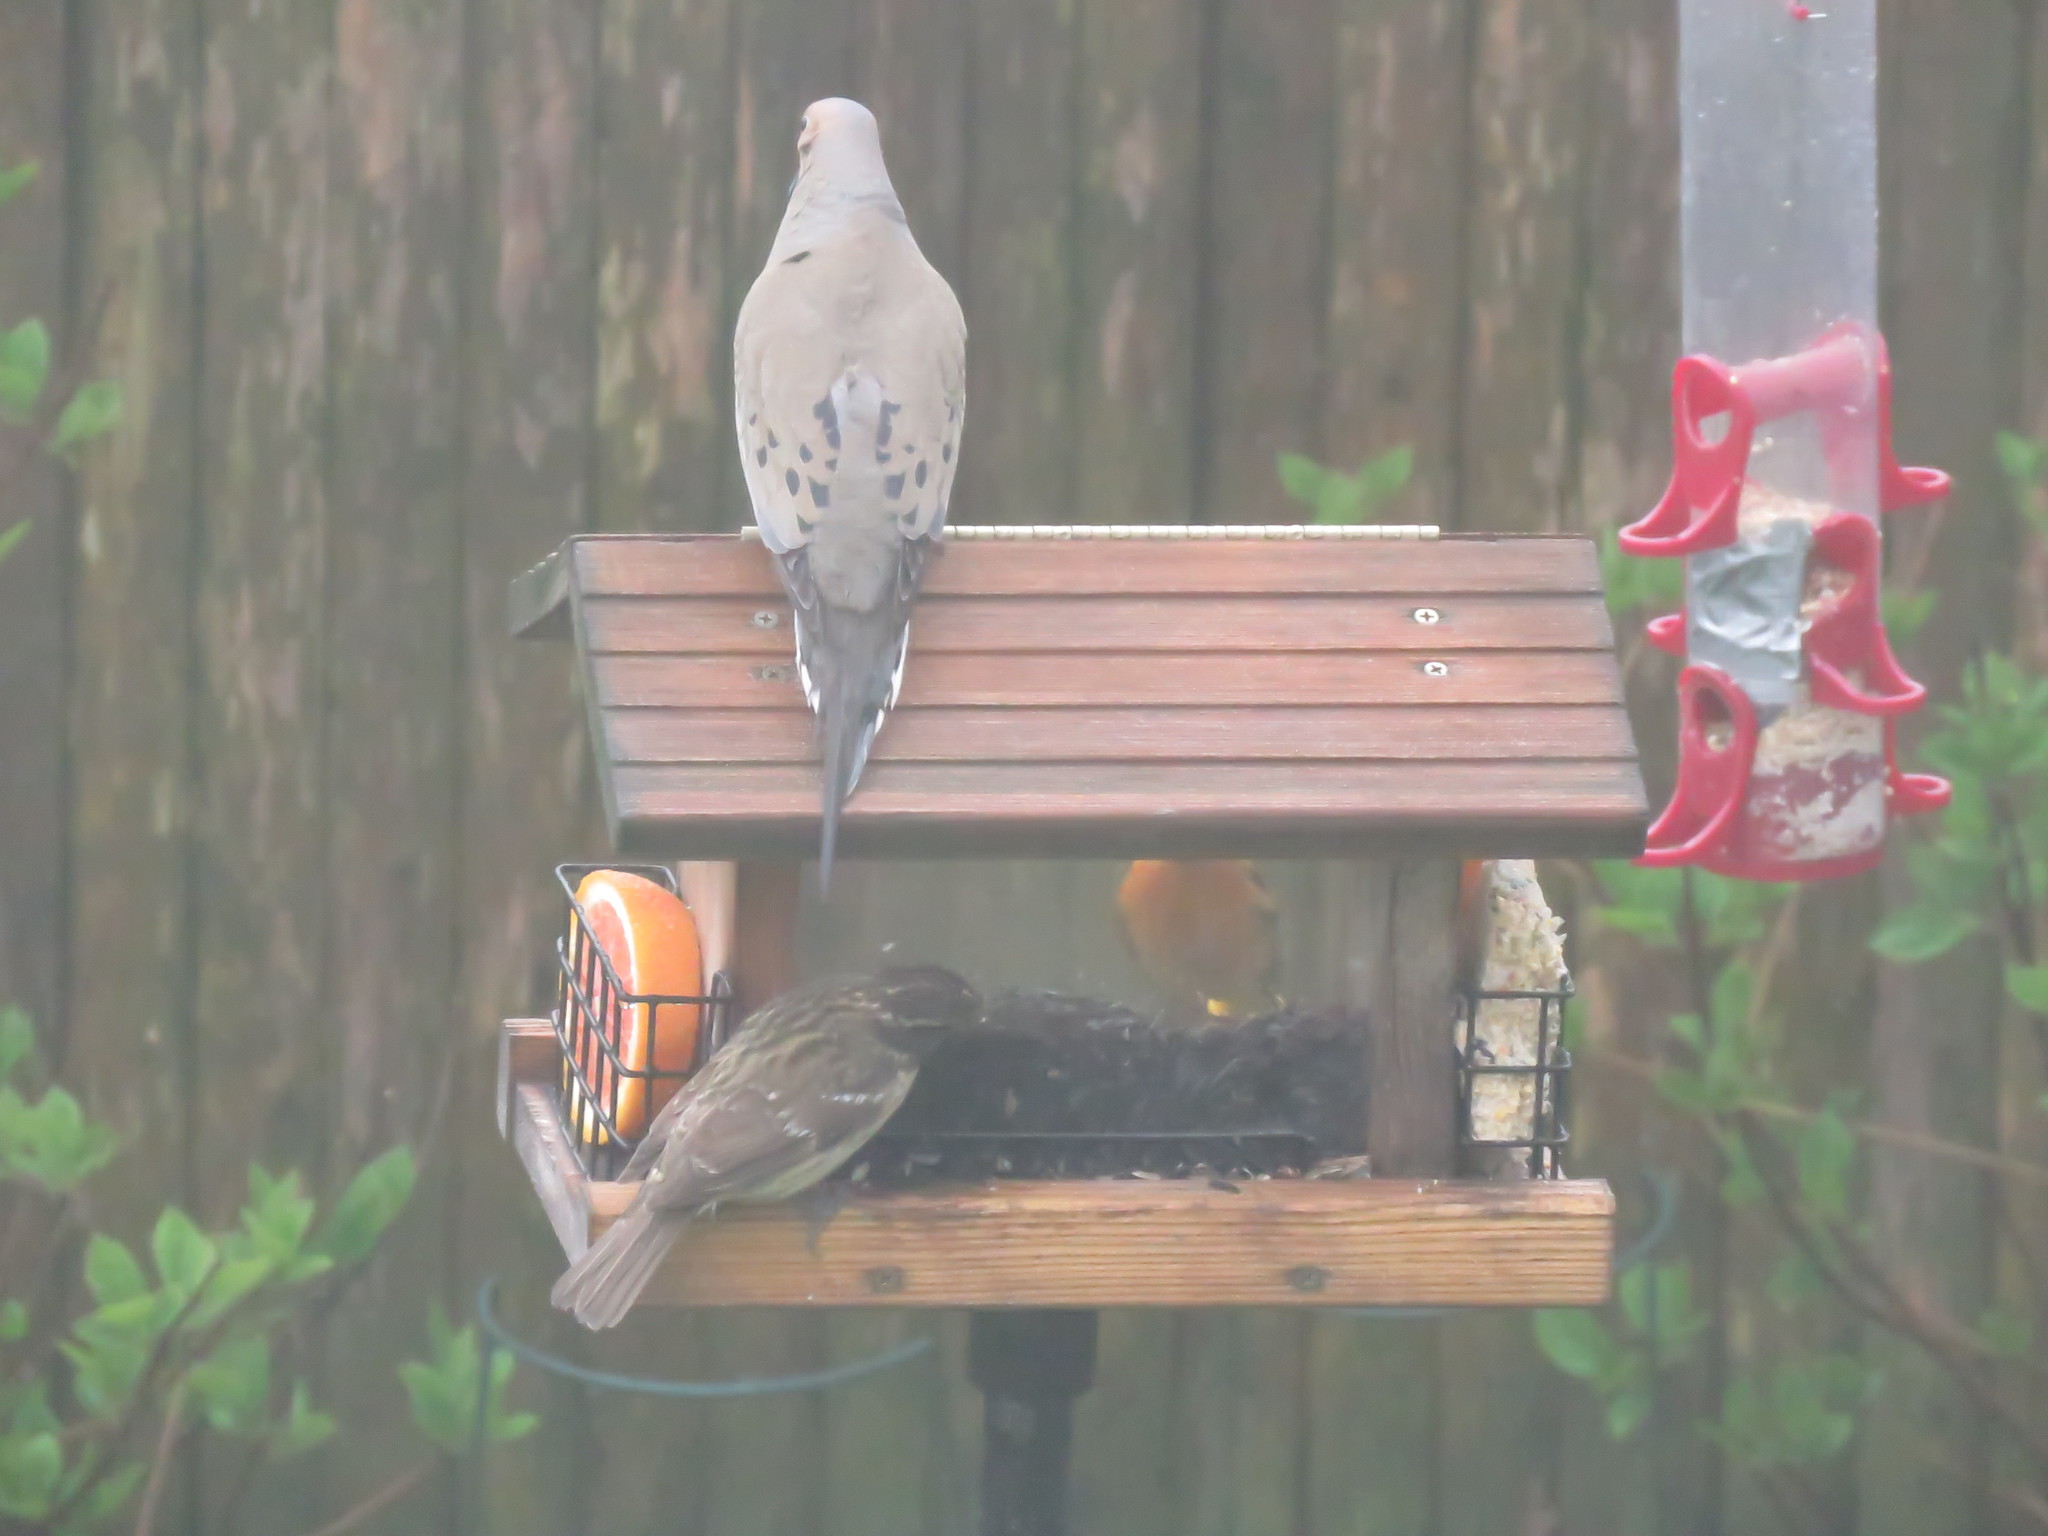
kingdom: Animalia
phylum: Chordata
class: Aves
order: Passeriformes
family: Icteridae
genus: Icterus
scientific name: Icterus galbula
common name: Baltimore oriole
